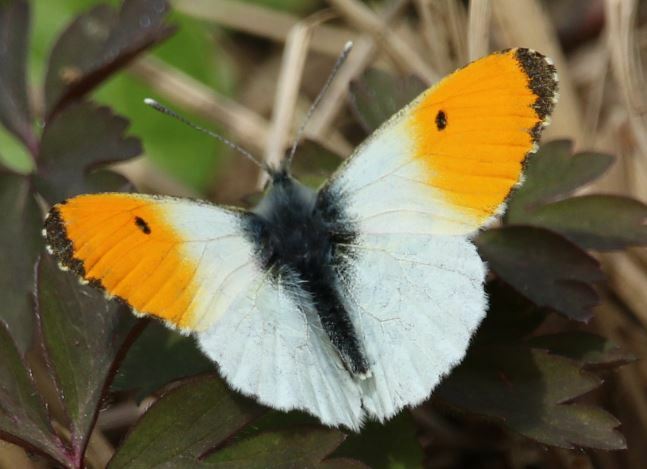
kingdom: Animalia
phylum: Arthropoda
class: Insecta
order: Lepidoptera
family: Pieridae
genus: Anthocharis
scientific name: Anthocharis cardamines
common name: Orange-tip
